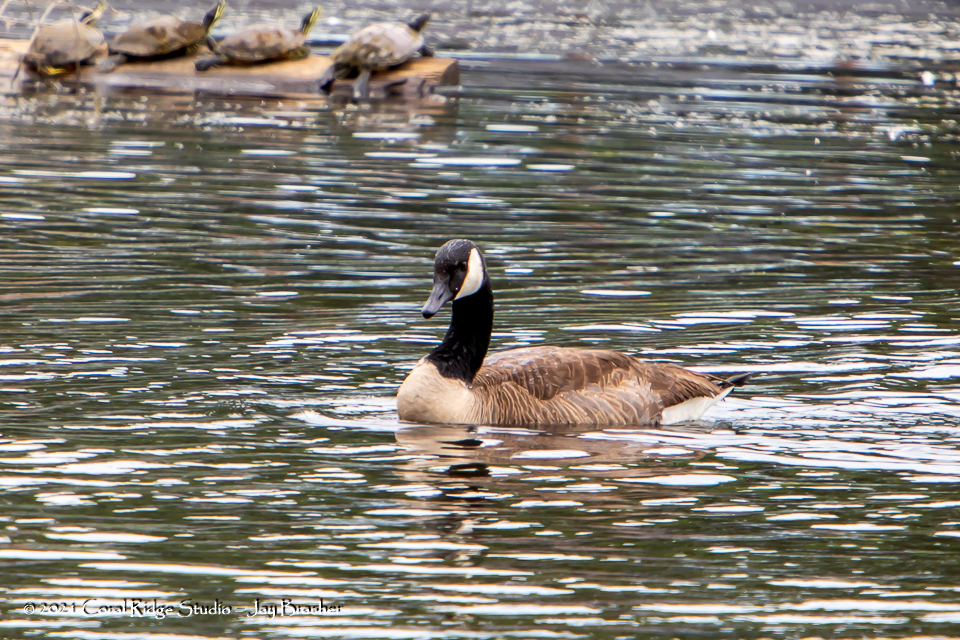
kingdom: Animalia
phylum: Chordata
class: Aves
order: Anseriformes
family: Anatidae
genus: Branta
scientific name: Branta canadensis
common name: Canada goose
